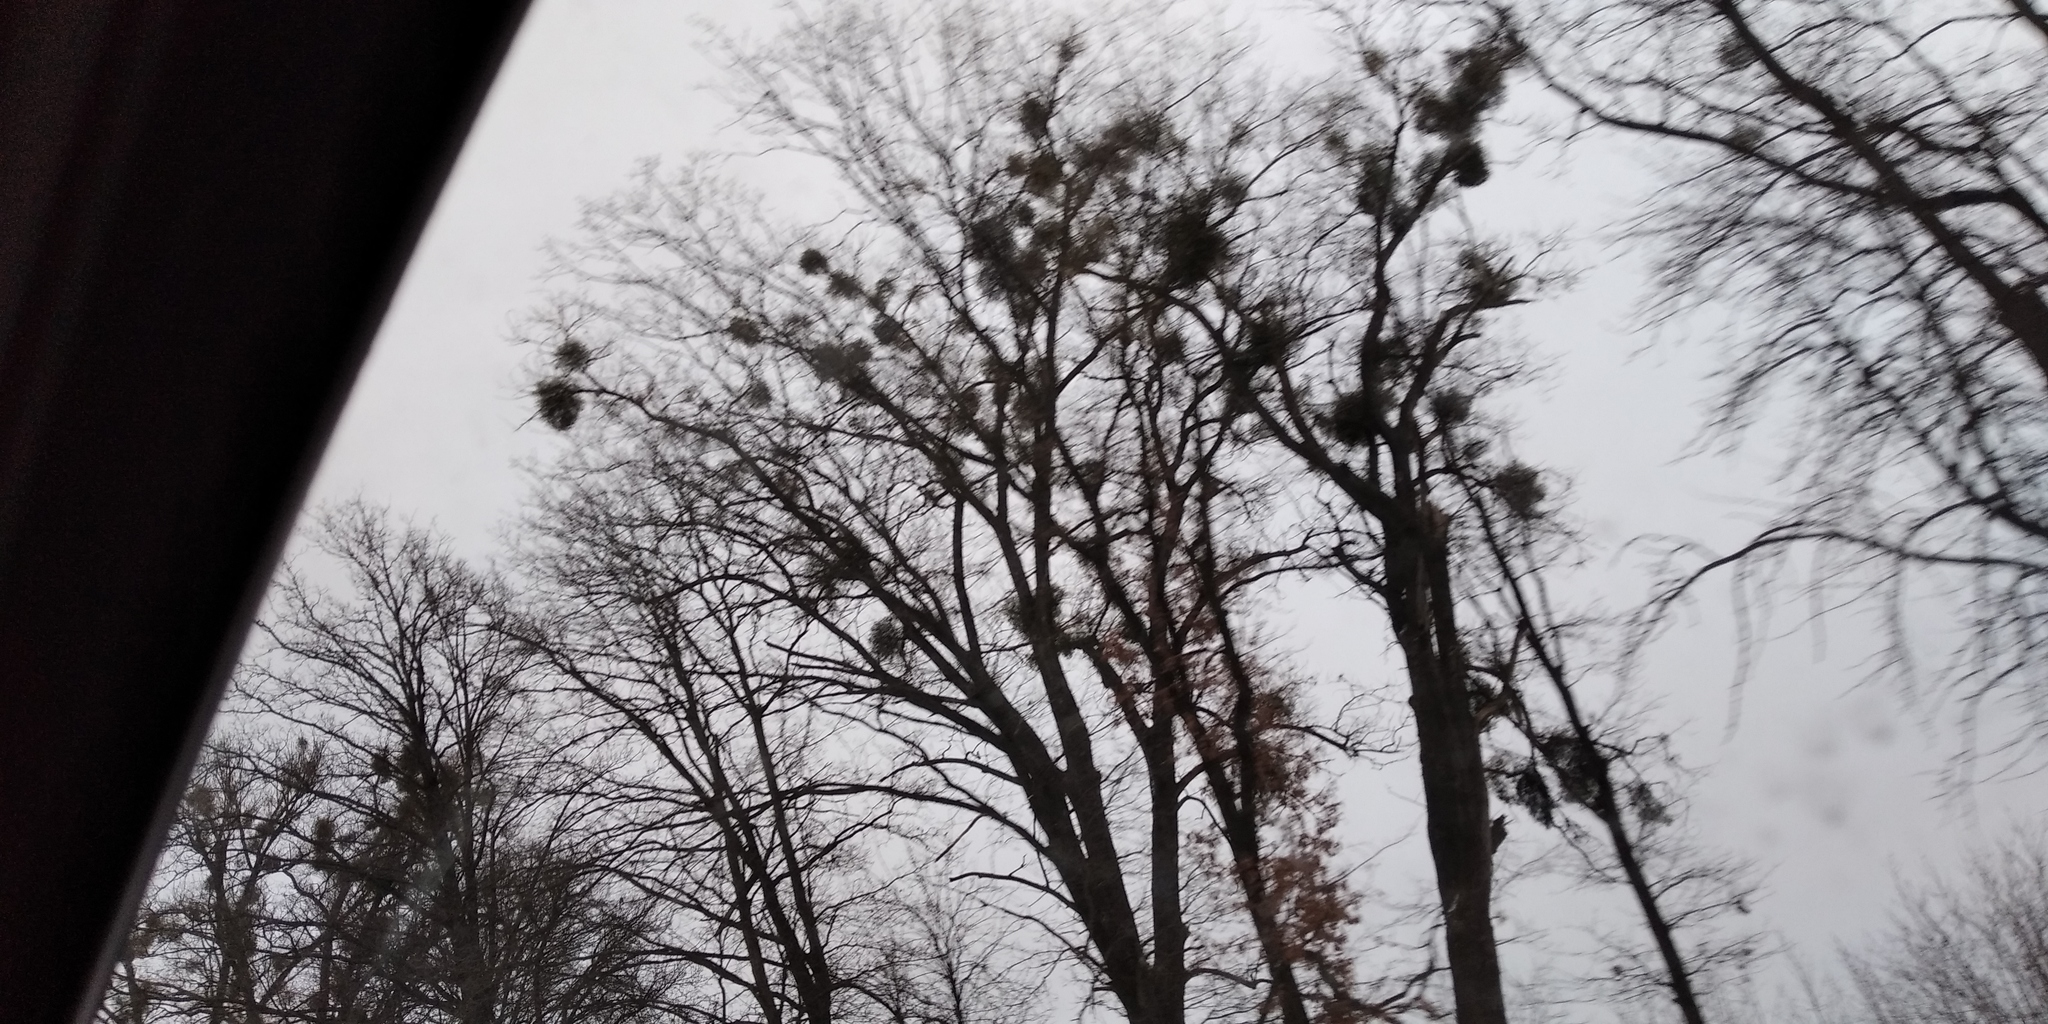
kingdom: Plantae
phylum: Tracheophyta
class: Magnoliopsida
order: Santalales
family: Viscaceae
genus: Viscum
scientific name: Viscum album
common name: Mistletoe
